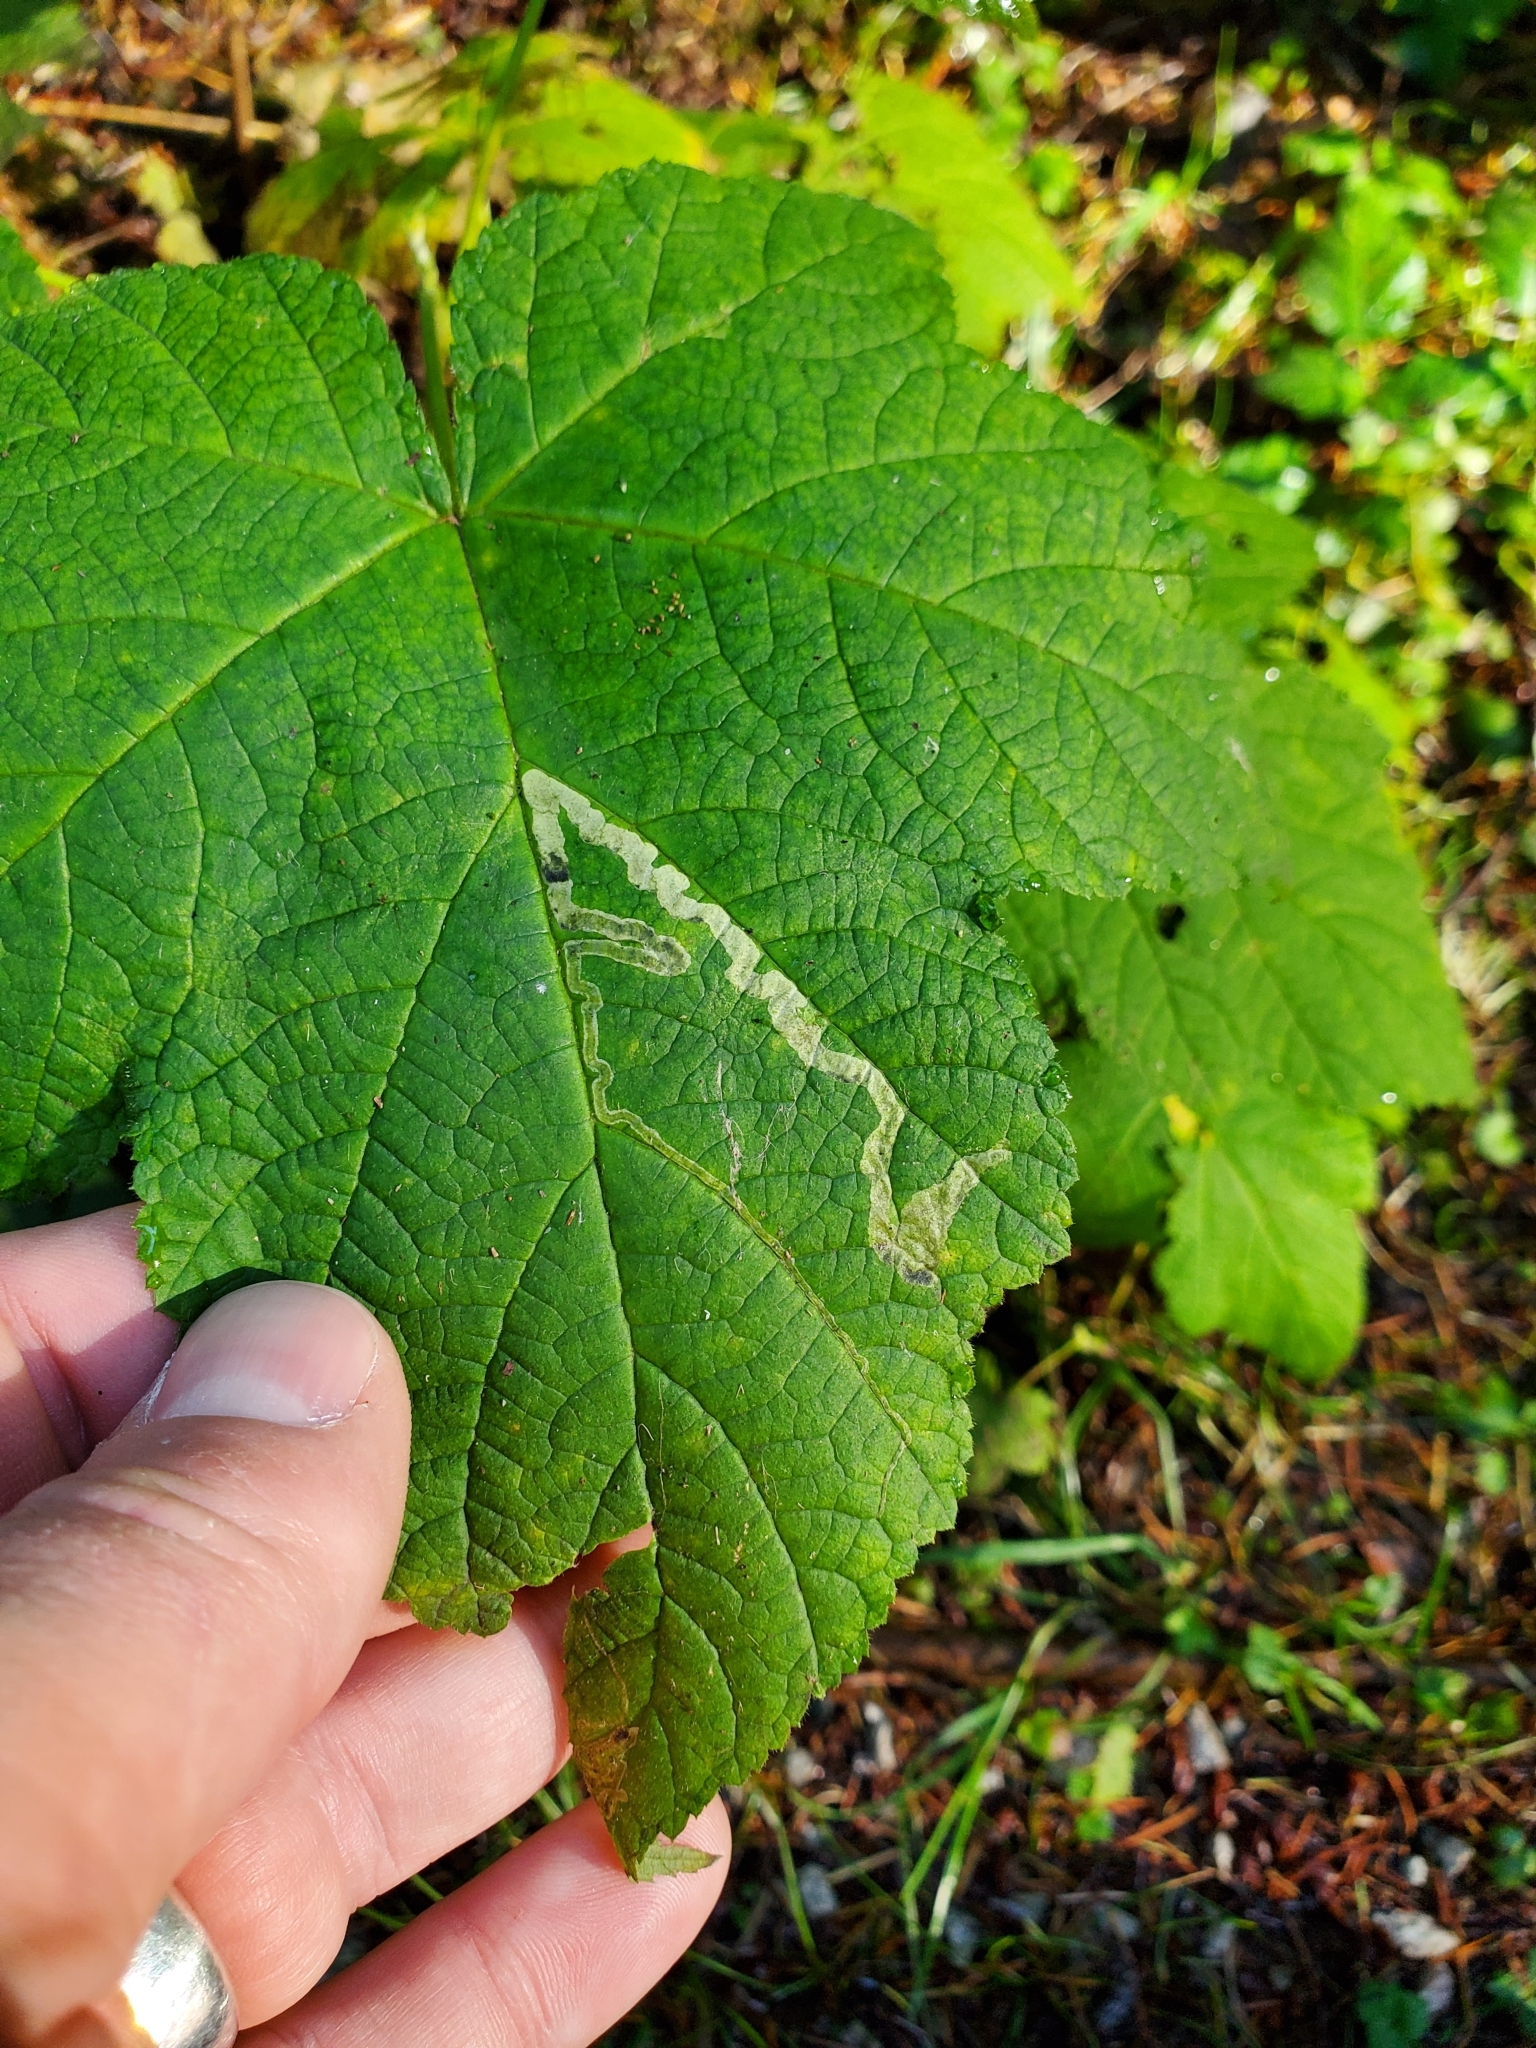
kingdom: Animalia
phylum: Arthropoda
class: Insecta
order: Diptera
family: Agromyzidae
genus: Agromyza
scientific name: Agromyza vockerothi
